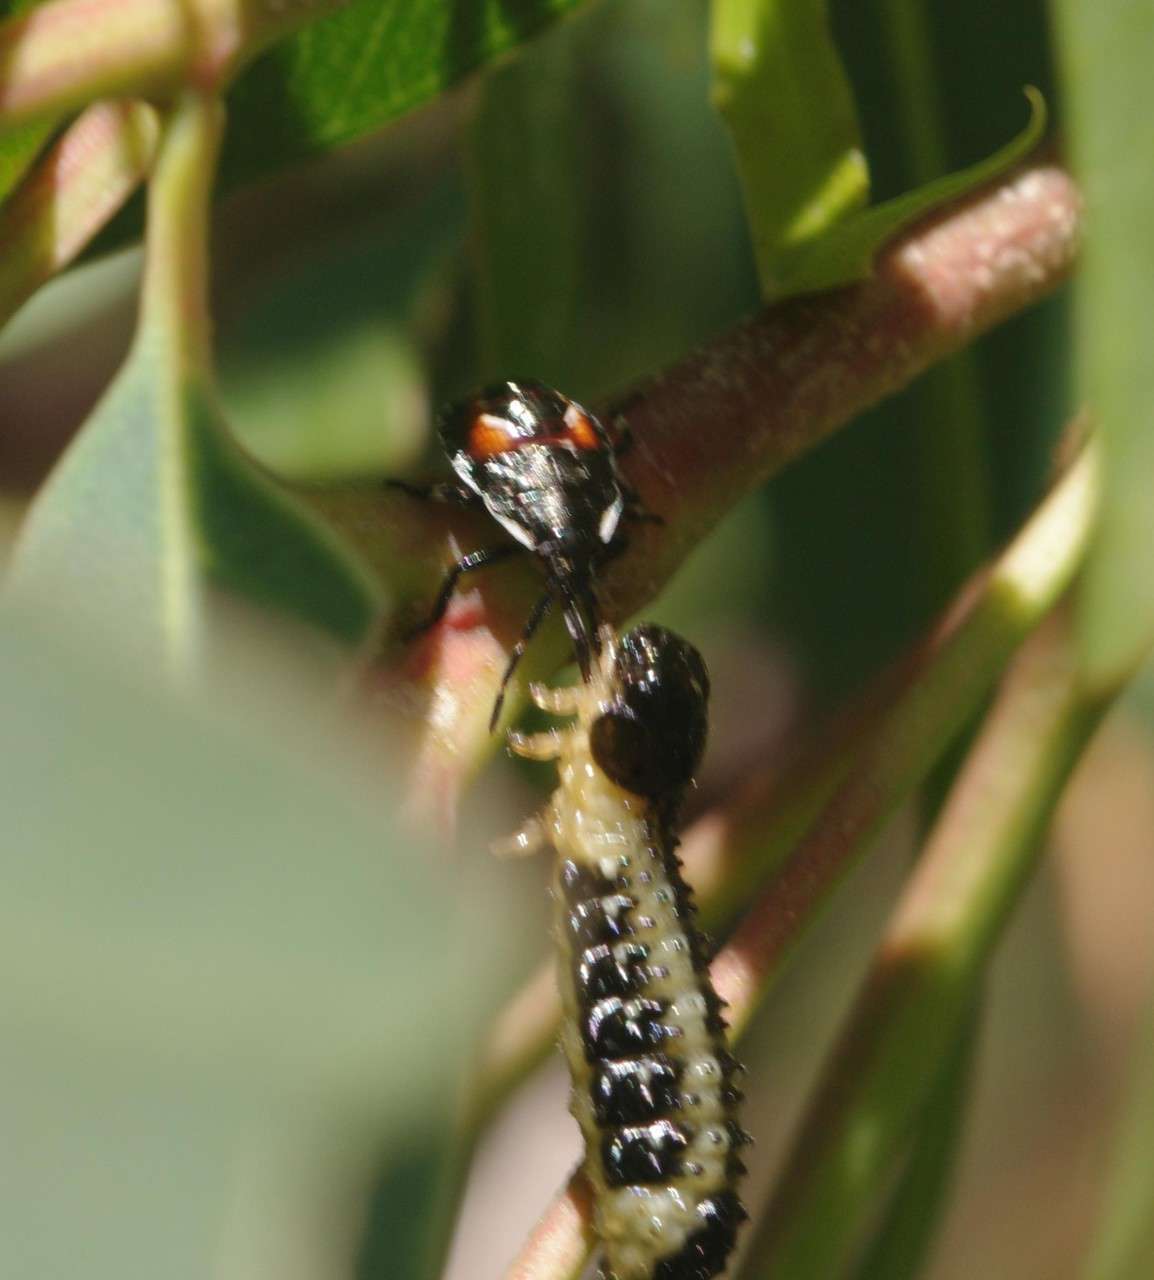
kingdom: Animalia
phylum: Arthropoda
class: Insecta
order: Coleoptera
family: Chrysomelidae
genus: Paropsis
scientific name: Paropsis
